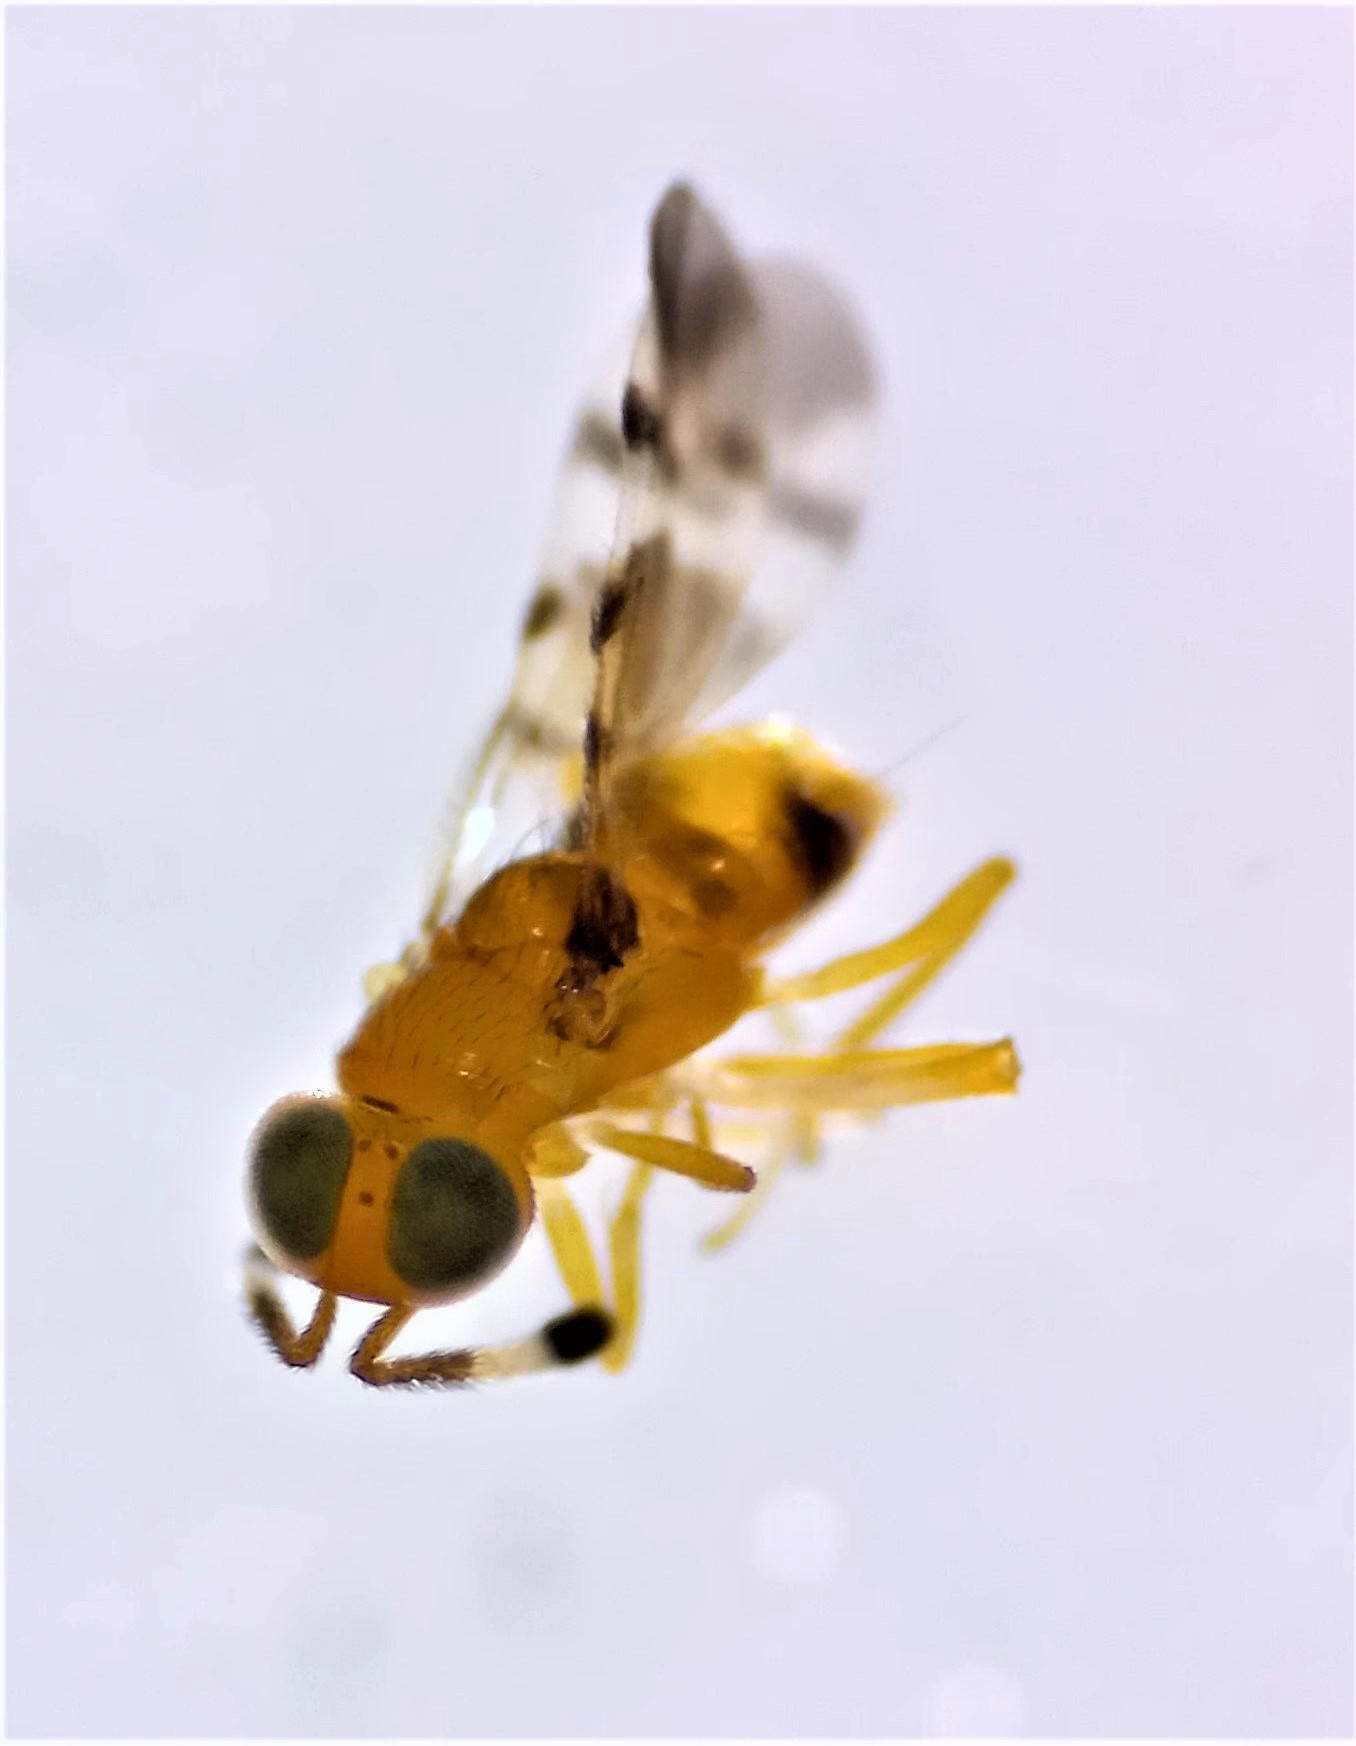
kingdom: Animalia
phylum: Arthropoda
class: Insecta
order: Hymenoptera
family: Encyrtidae
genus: Microterys
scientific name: Microterys nietneri
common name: Parasitoid wasp
